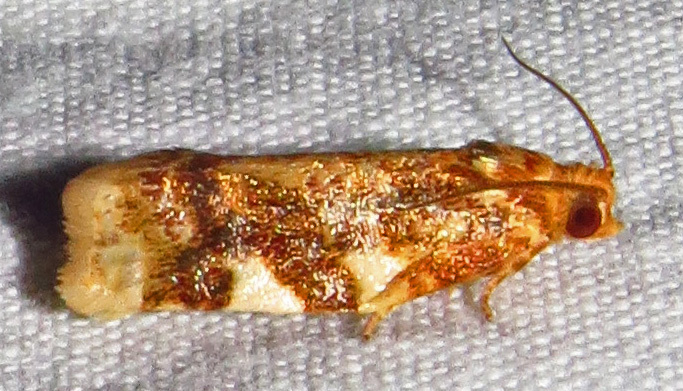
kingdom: Animalia
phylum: Arthropoda
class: Insecta
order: Lepidoptera
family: Tortricidae
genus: Archips
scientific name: Archips argyrospila
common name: Fruit-tree leafroller moth
